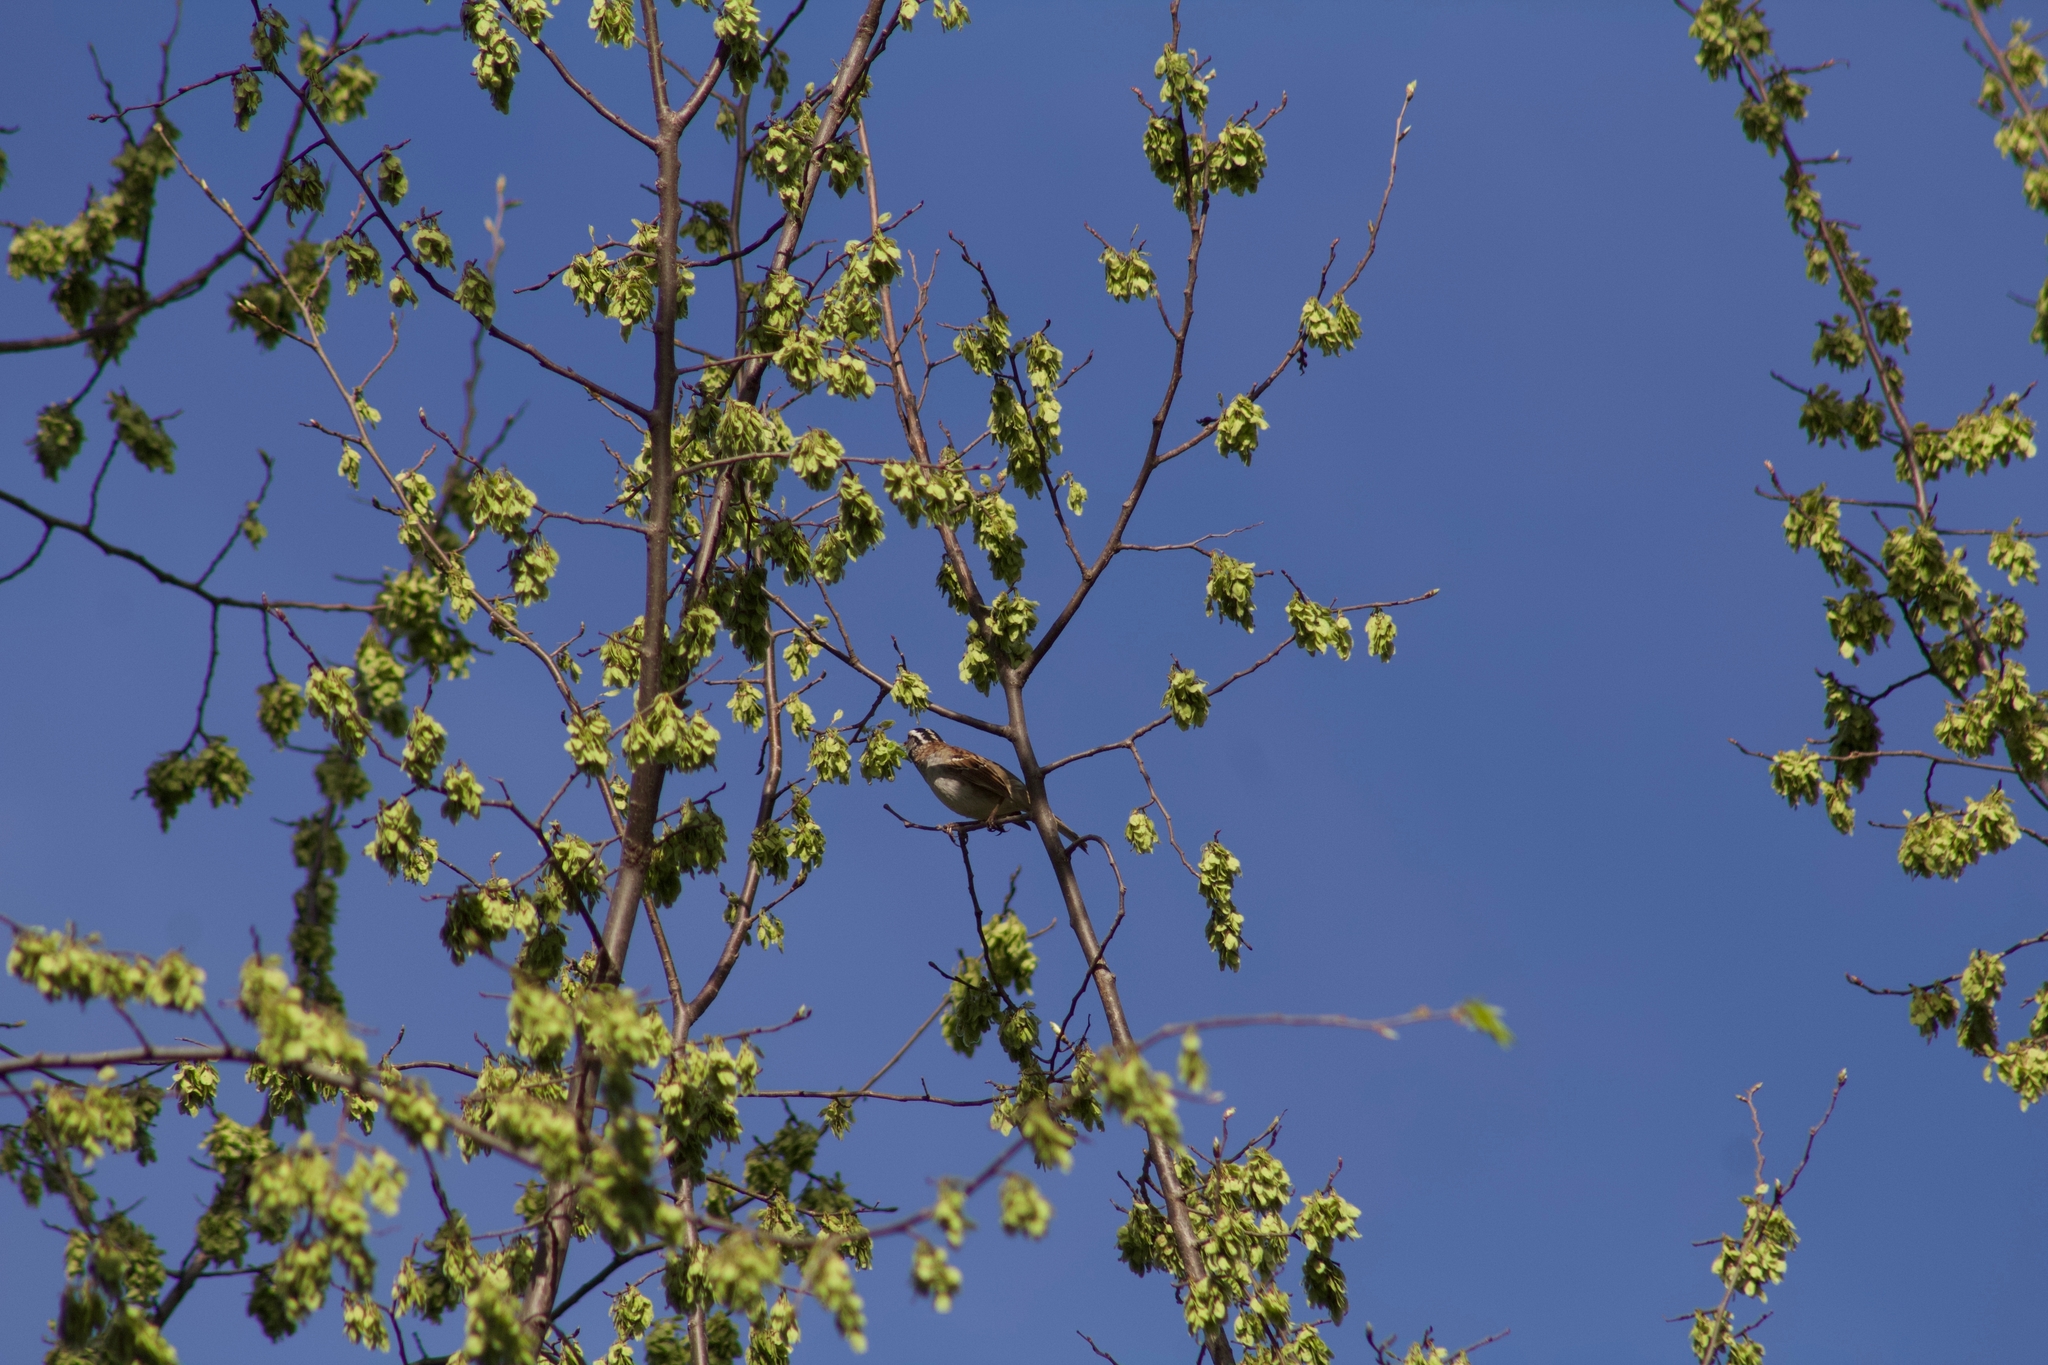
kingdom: Animalia
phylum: Chordata
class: Aves
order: Passeriformes
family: Passerellidae
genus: Zonotrichia
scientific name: Zonotrichia albicollis
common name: White-throated sparrow
